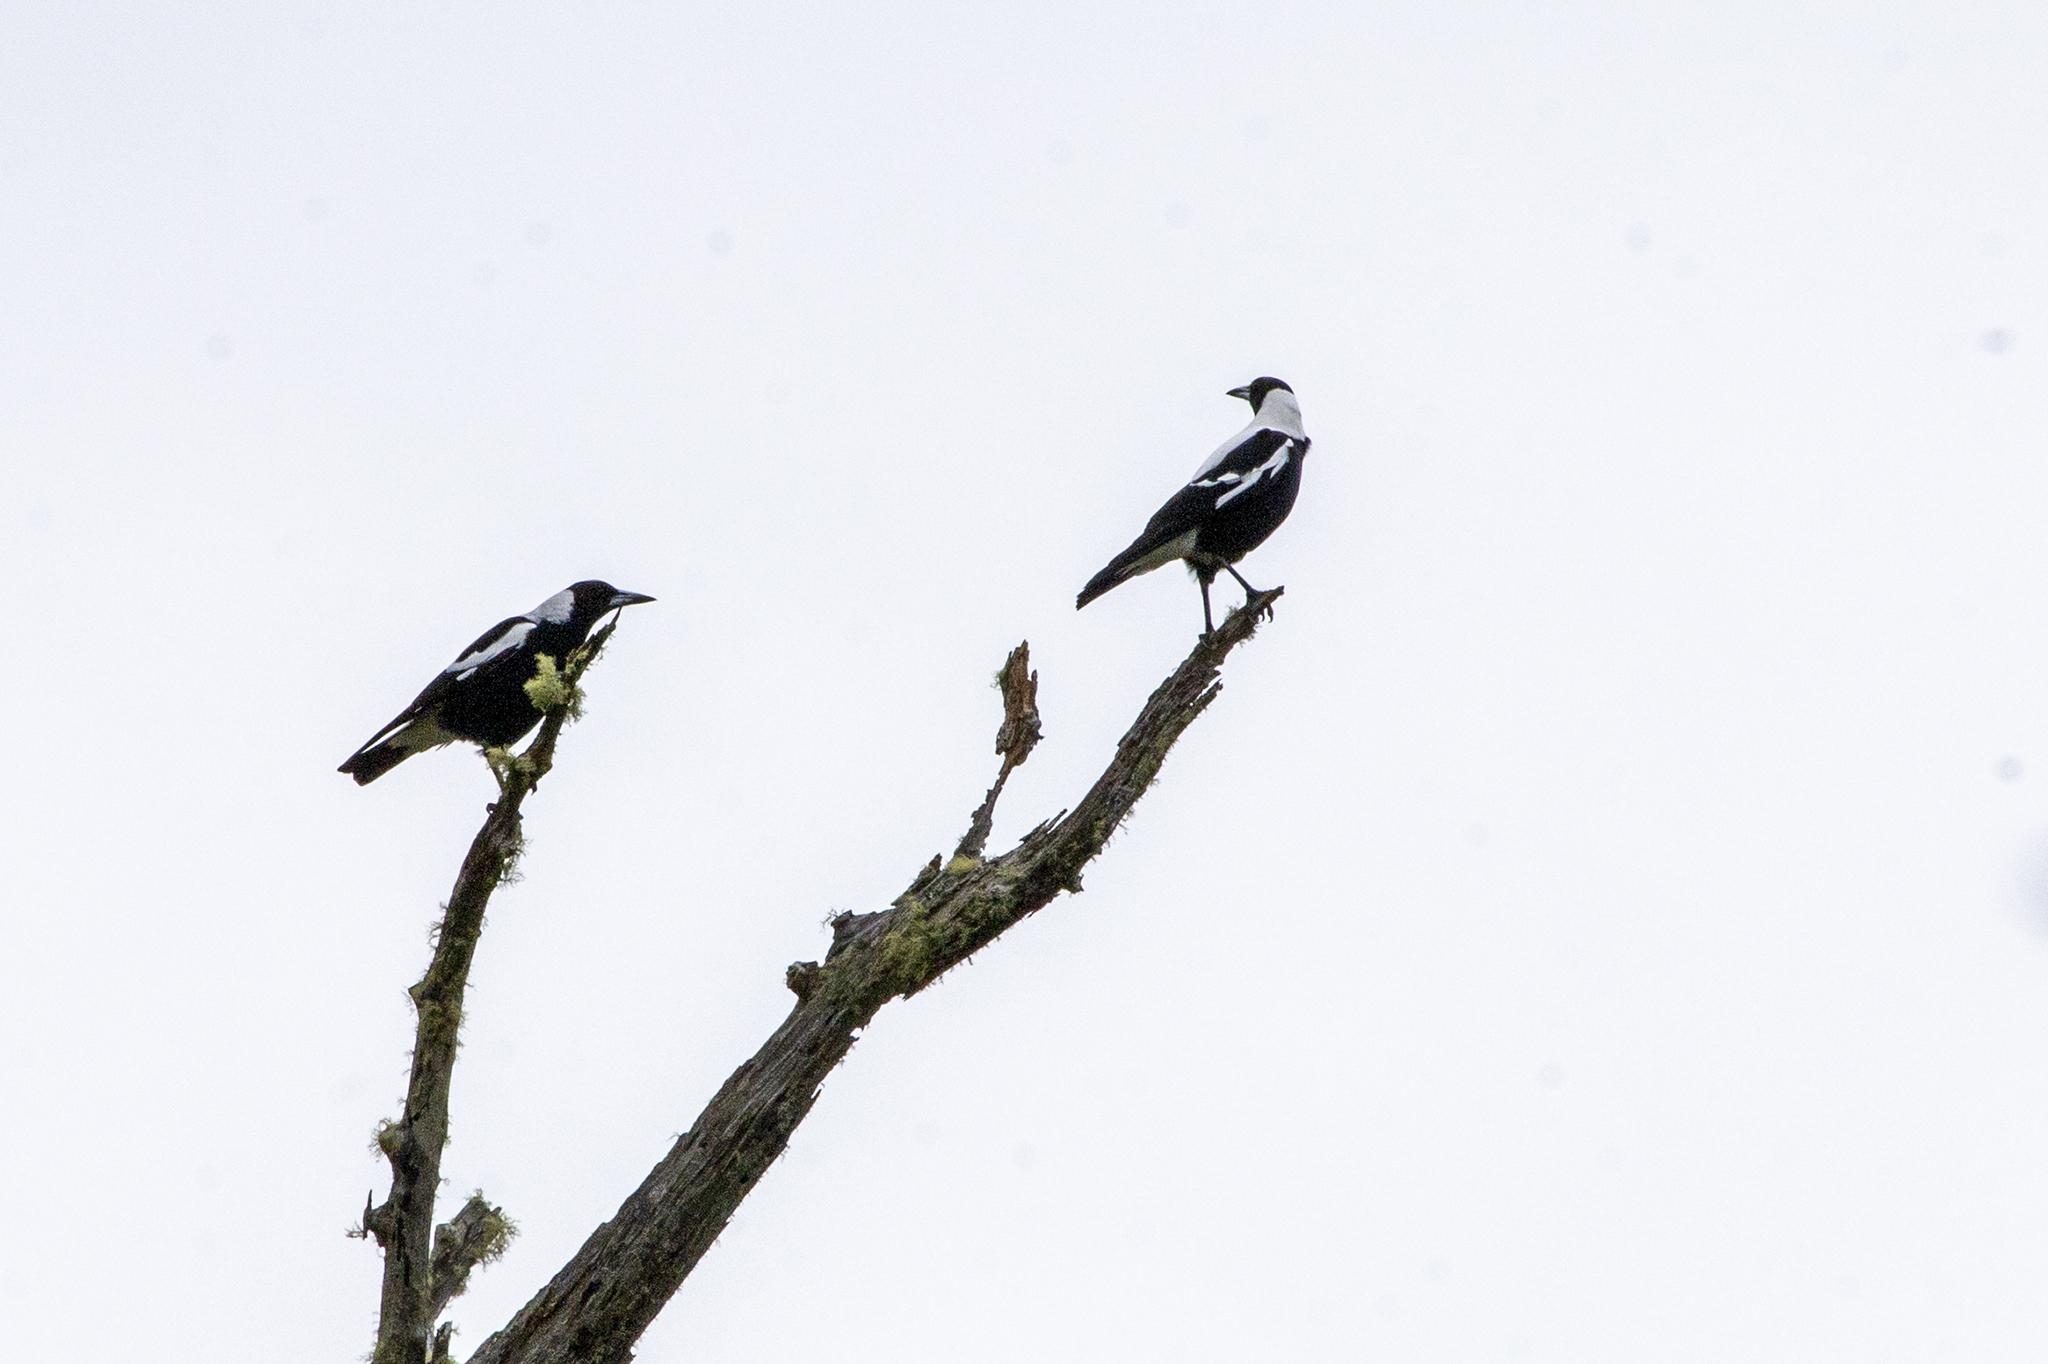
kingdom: Animalia
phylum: Chordata
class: Aves
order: Passeriformes
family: Cracticidae
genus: Gymnorhina
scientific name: Gymnorhina tibicen
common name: Australian magpie
